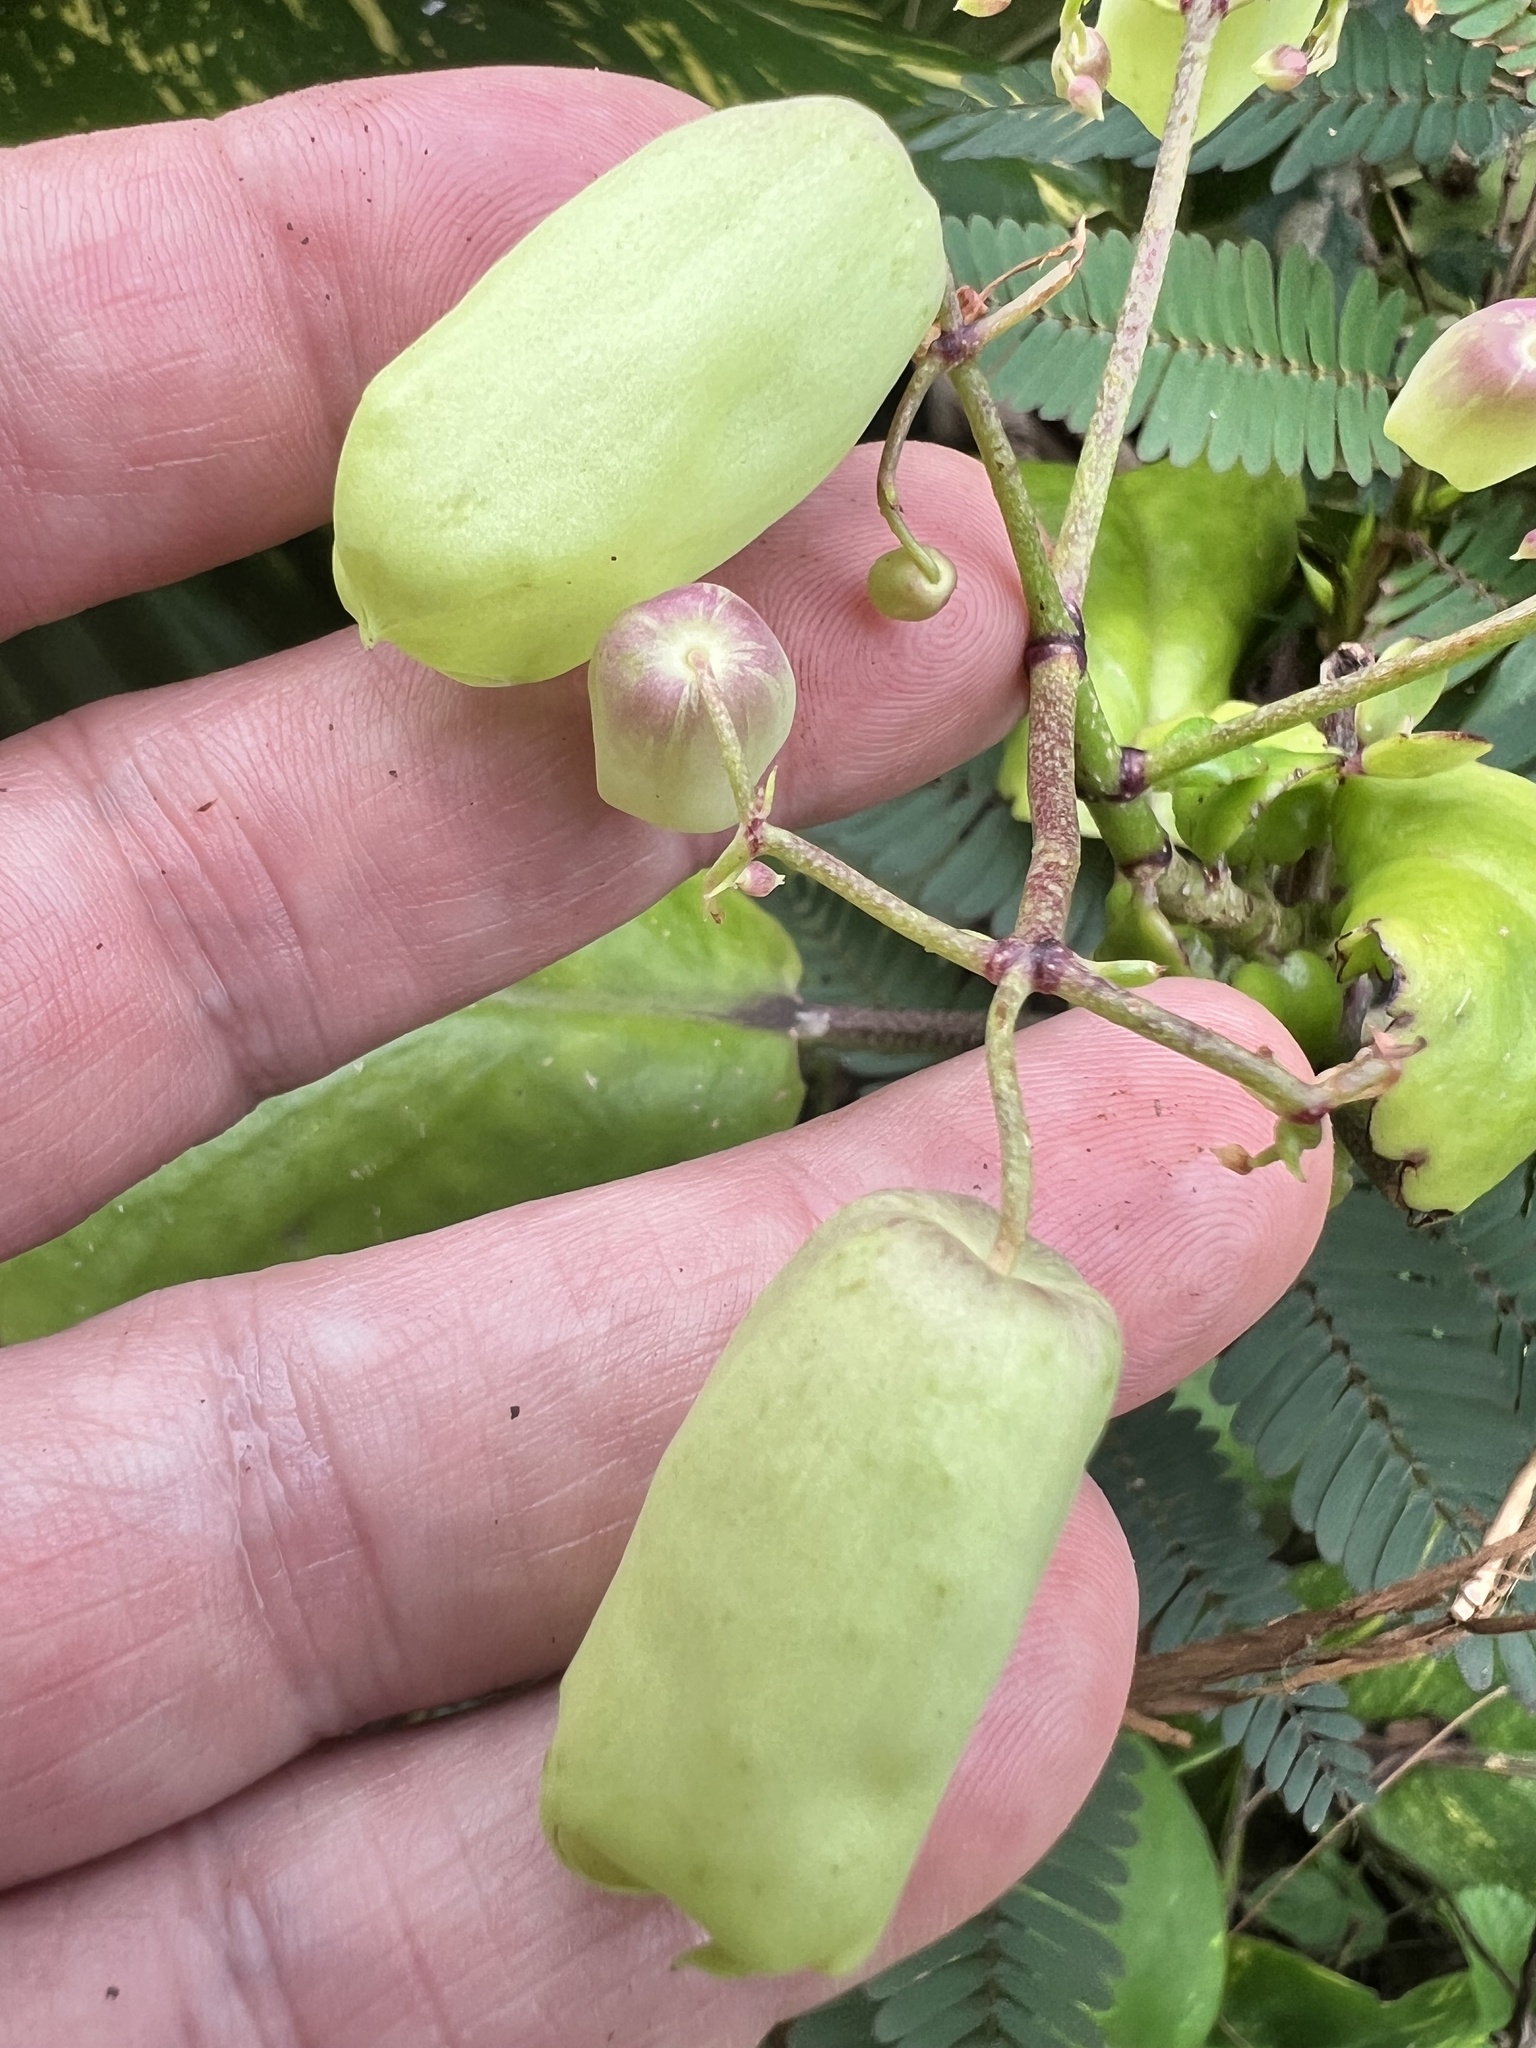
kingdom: Plantae
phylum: Tracheophyta
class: Magnoliopsida
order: Saxifragales
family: Crassulaceae
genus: Kalanchoe
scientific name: Kalanchoe pinnata
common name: Cathedral bells
